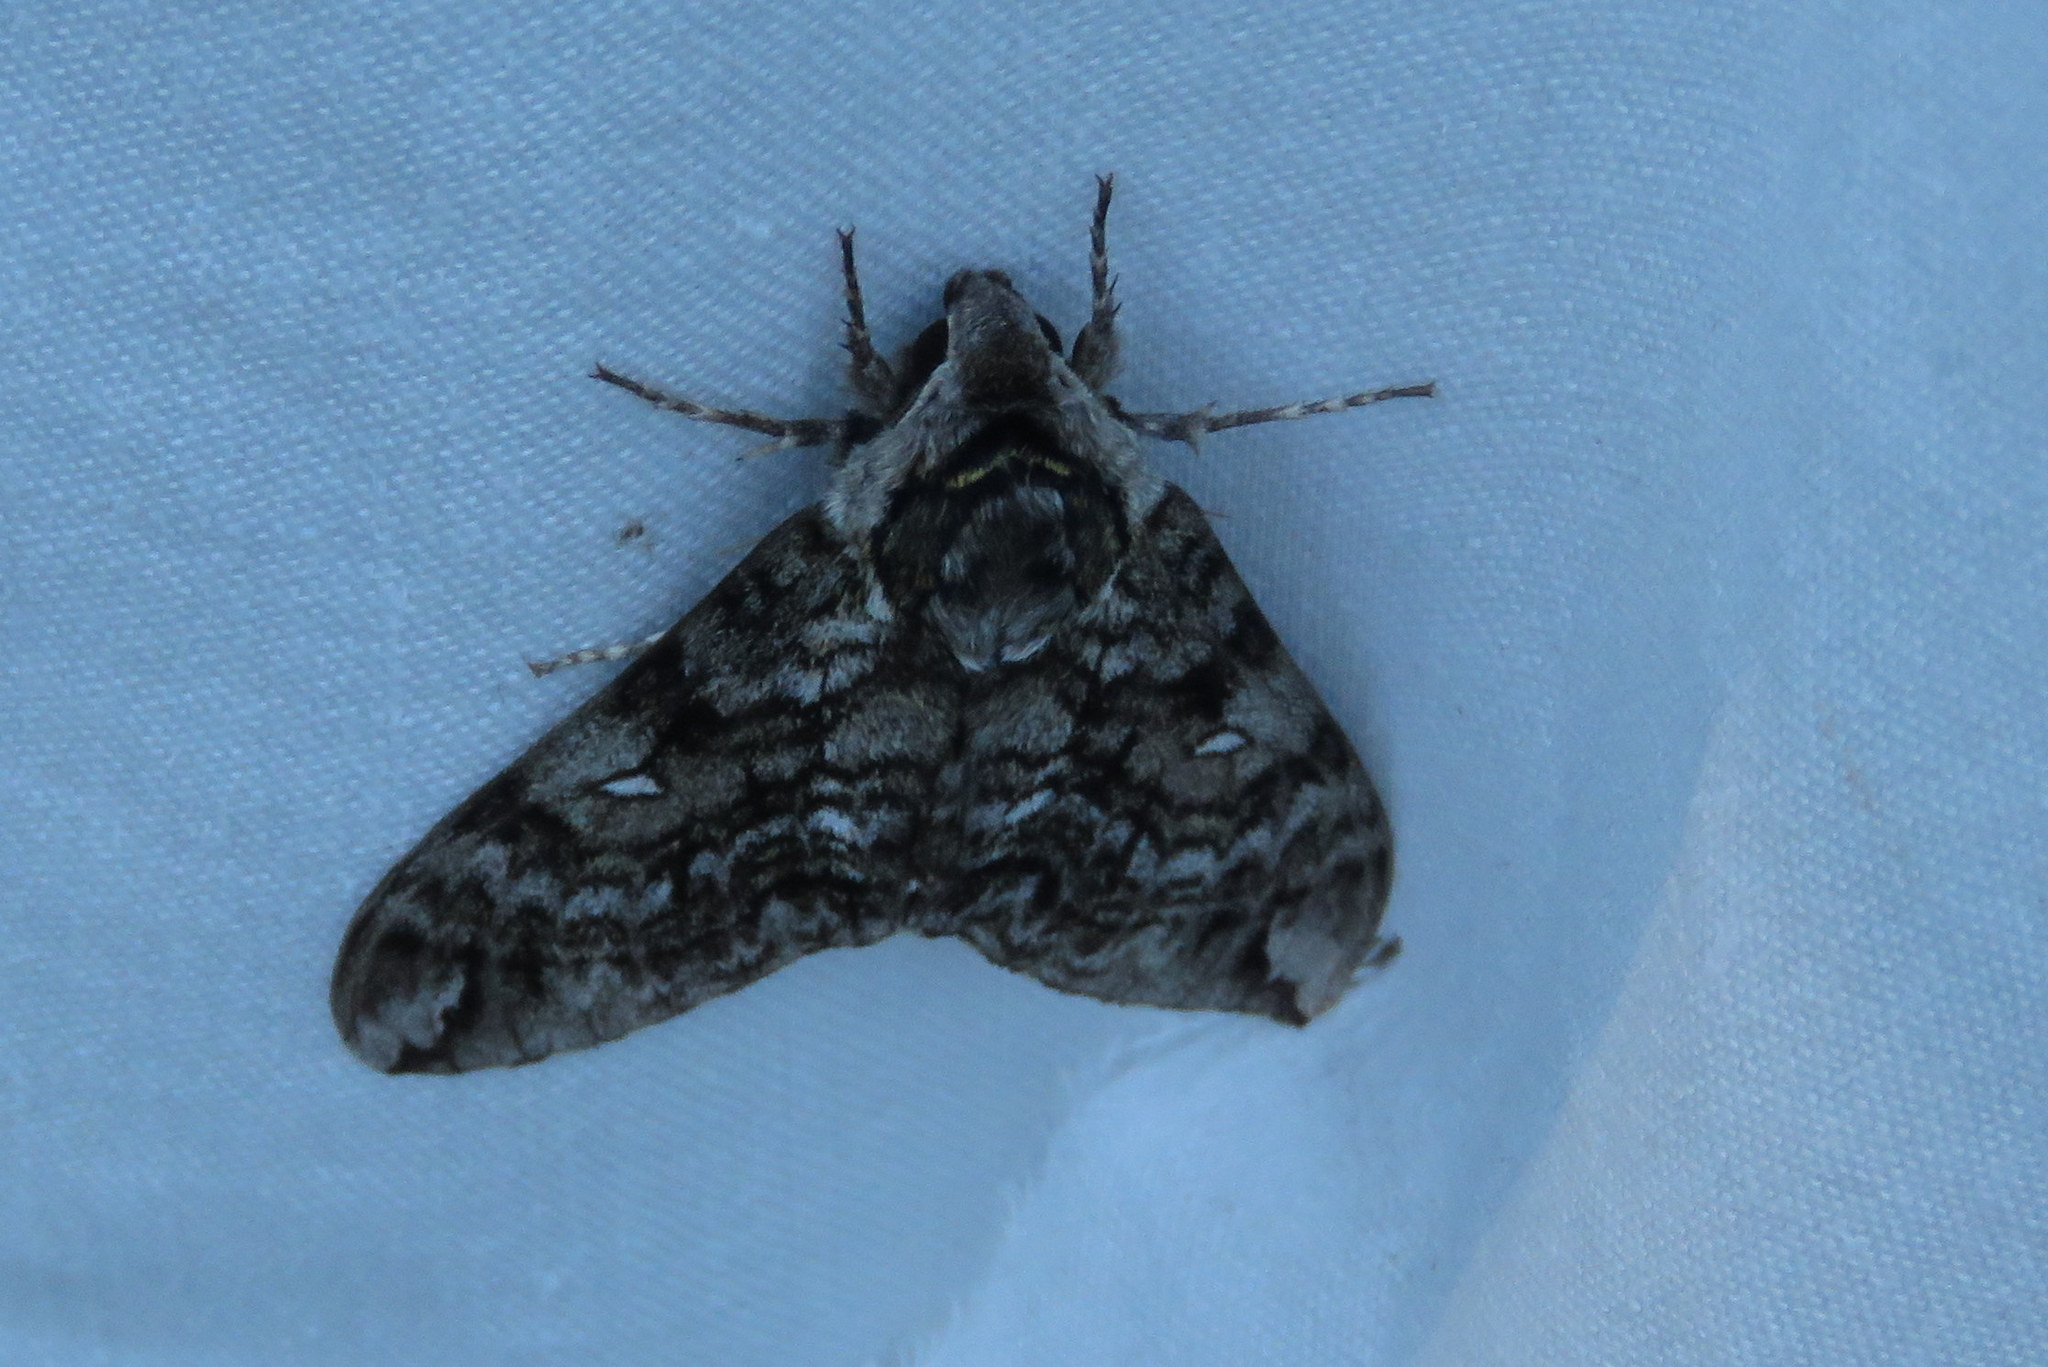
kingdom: Animalia
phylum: Arthropoda
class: Insecta
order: Lepidoptera
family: Sphingidae
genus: Ceratomia
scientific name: Ceratomia undulosa
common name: Waved sphinx
